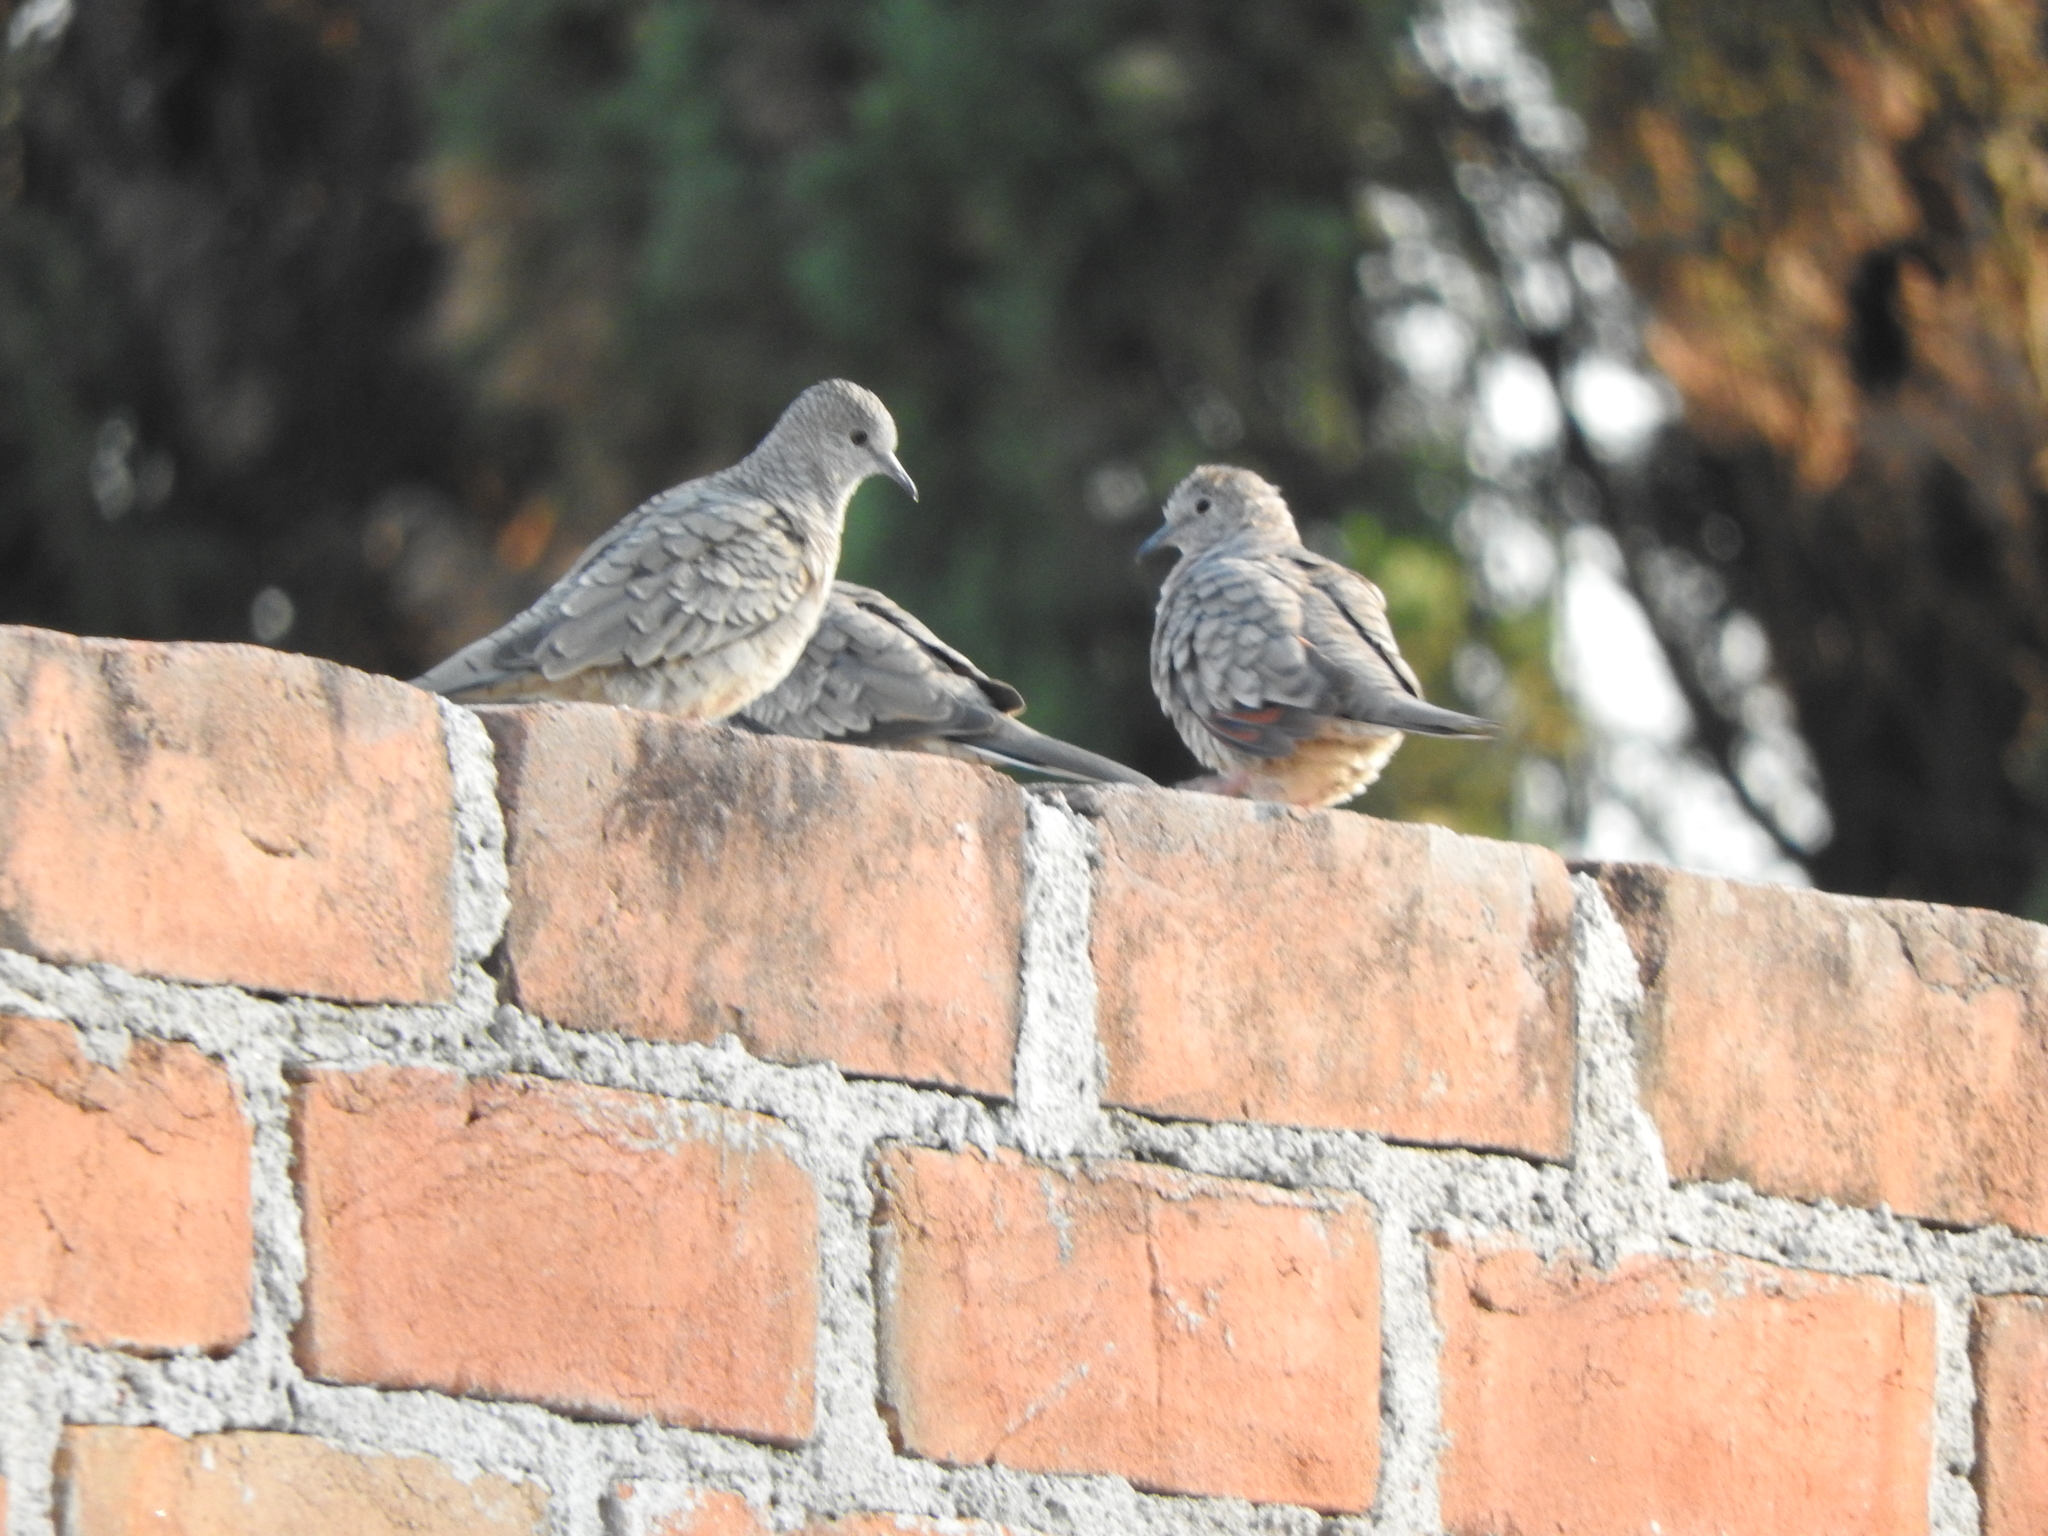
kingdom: Animalia
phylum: Chordata
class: Aves
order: Columbiformes
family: Columbidae
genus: Columbina
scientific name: Columbina inca
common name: Inca dove
